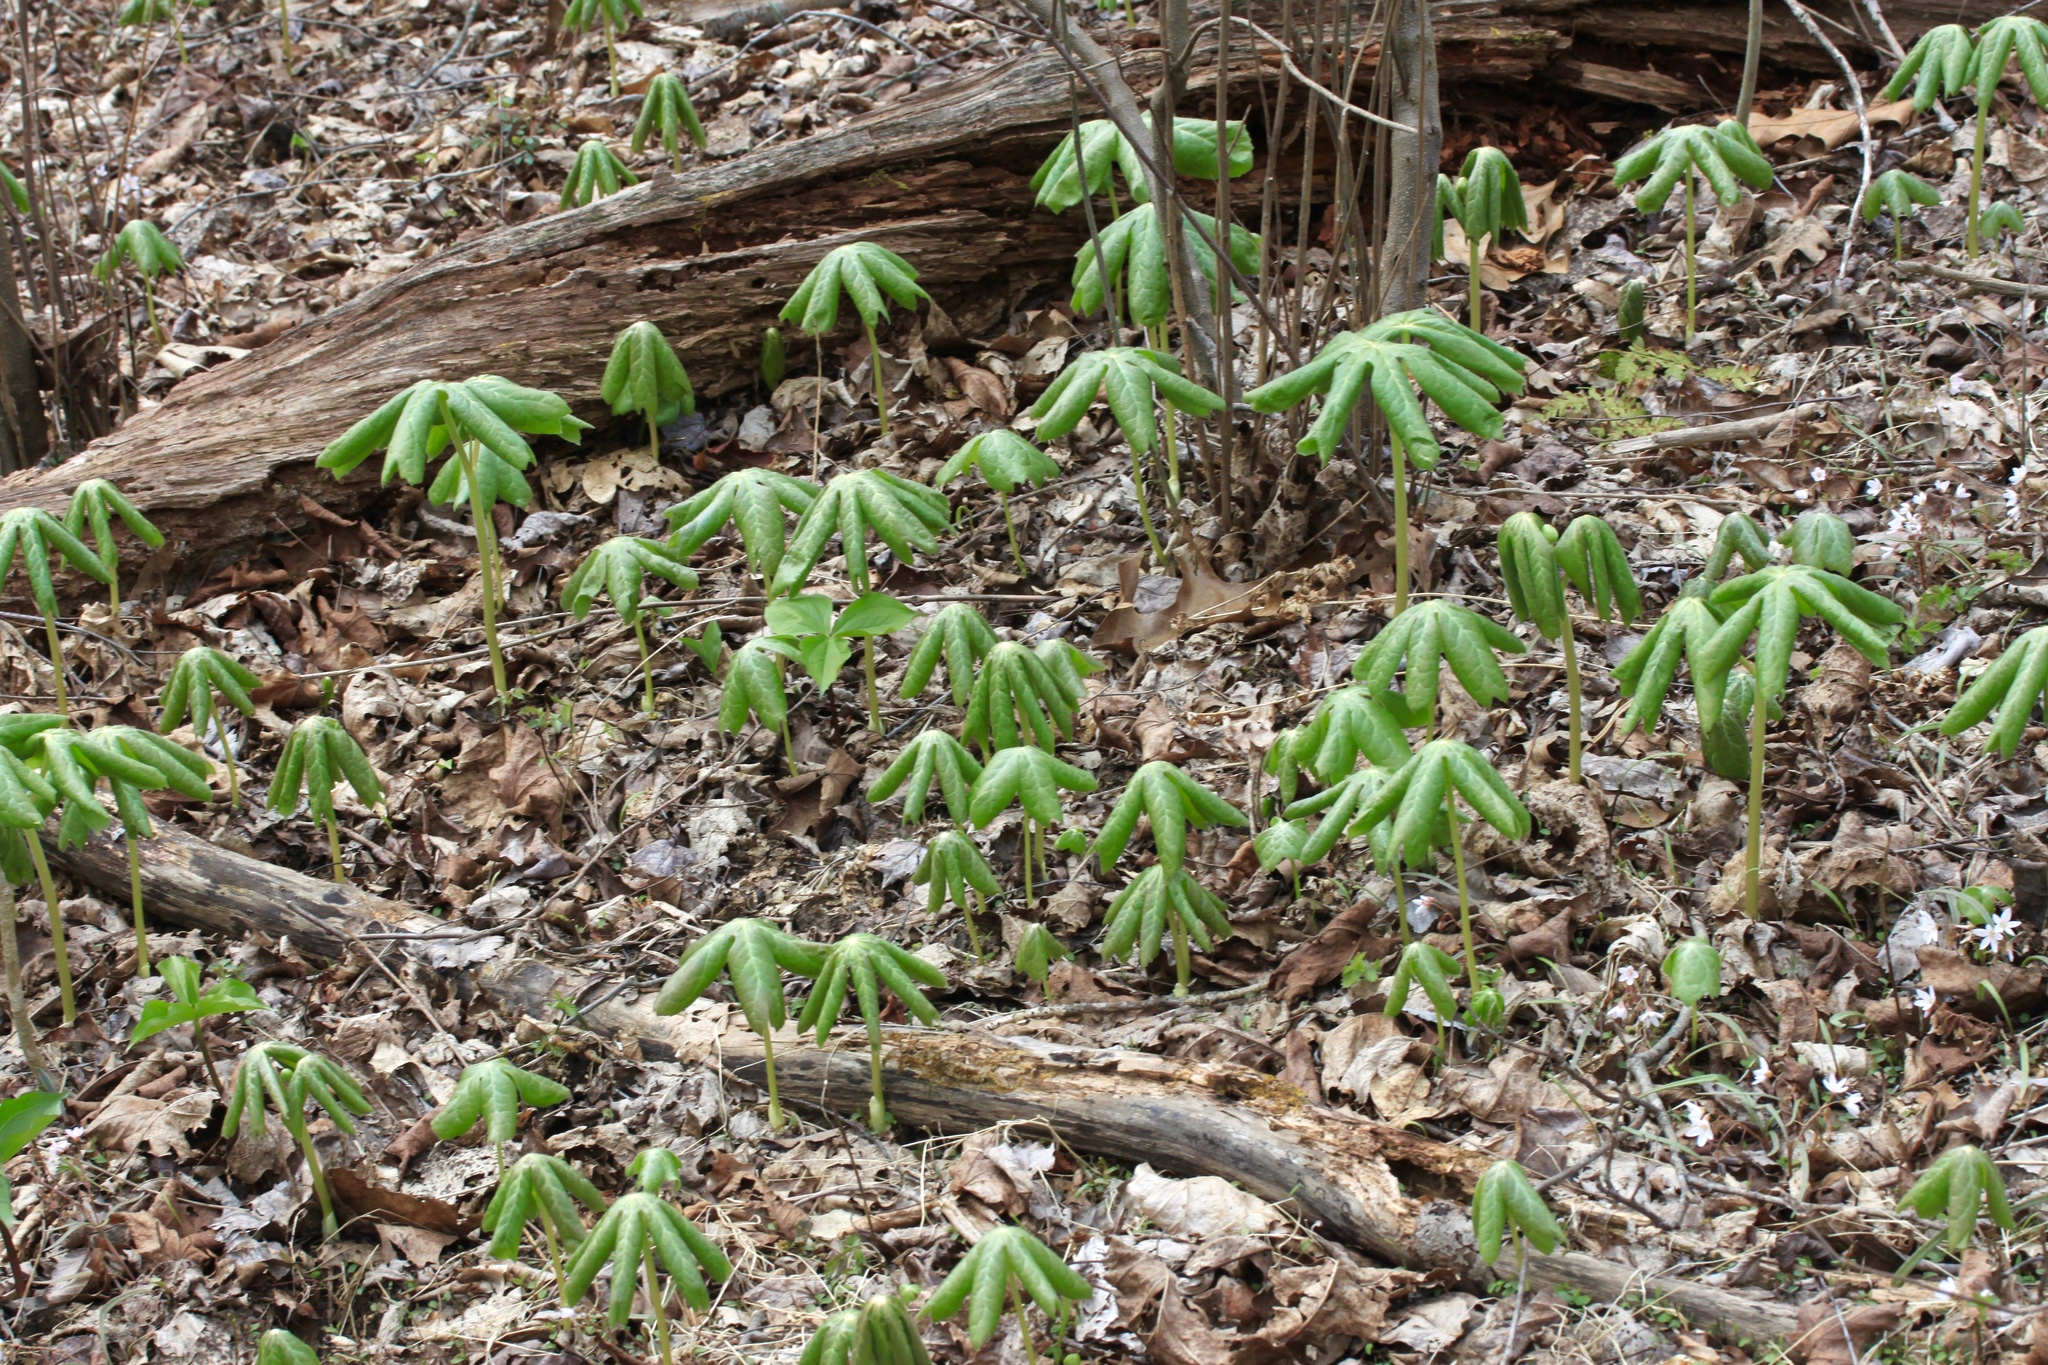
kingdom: Plantae
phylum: Tracheophyta
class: Magnoliopsida
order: Ranunculales
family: Berberidaceae
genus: Podophyllum
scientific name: Podophyllum peltatum
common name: Wild mandrake
